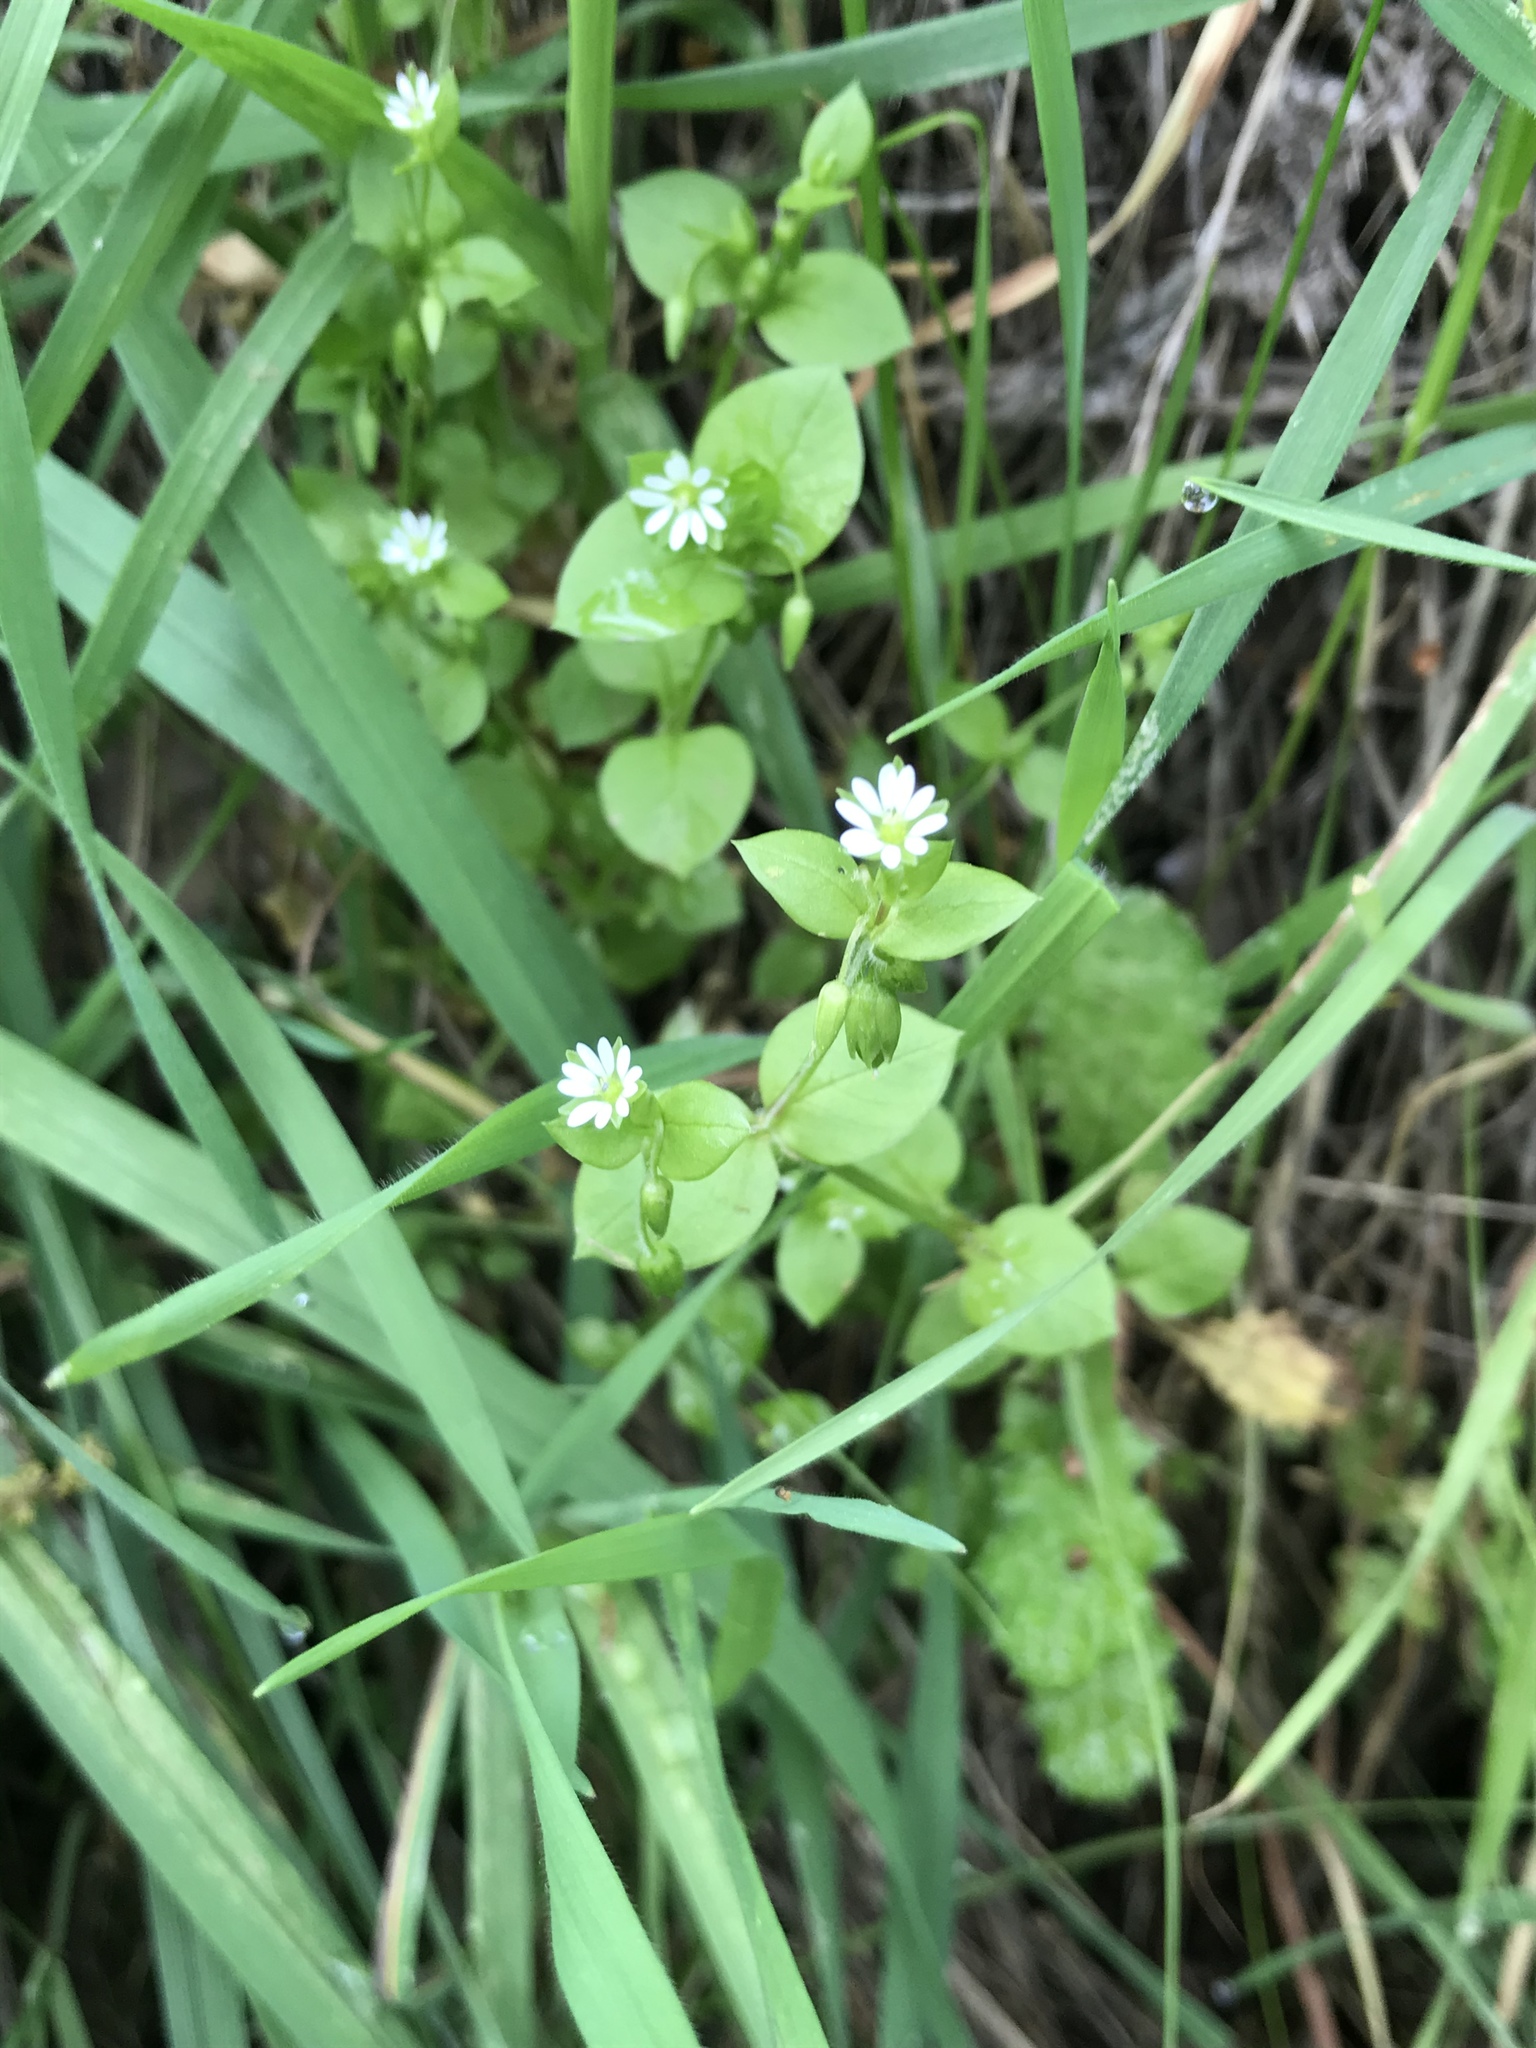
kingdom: Plantae
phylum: Tracheophyta
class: Magnoliopsida
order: Caryophyllales
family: Caryophyllaceae
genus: Stellaria
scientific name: Stellaria media
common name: Common chickweed
